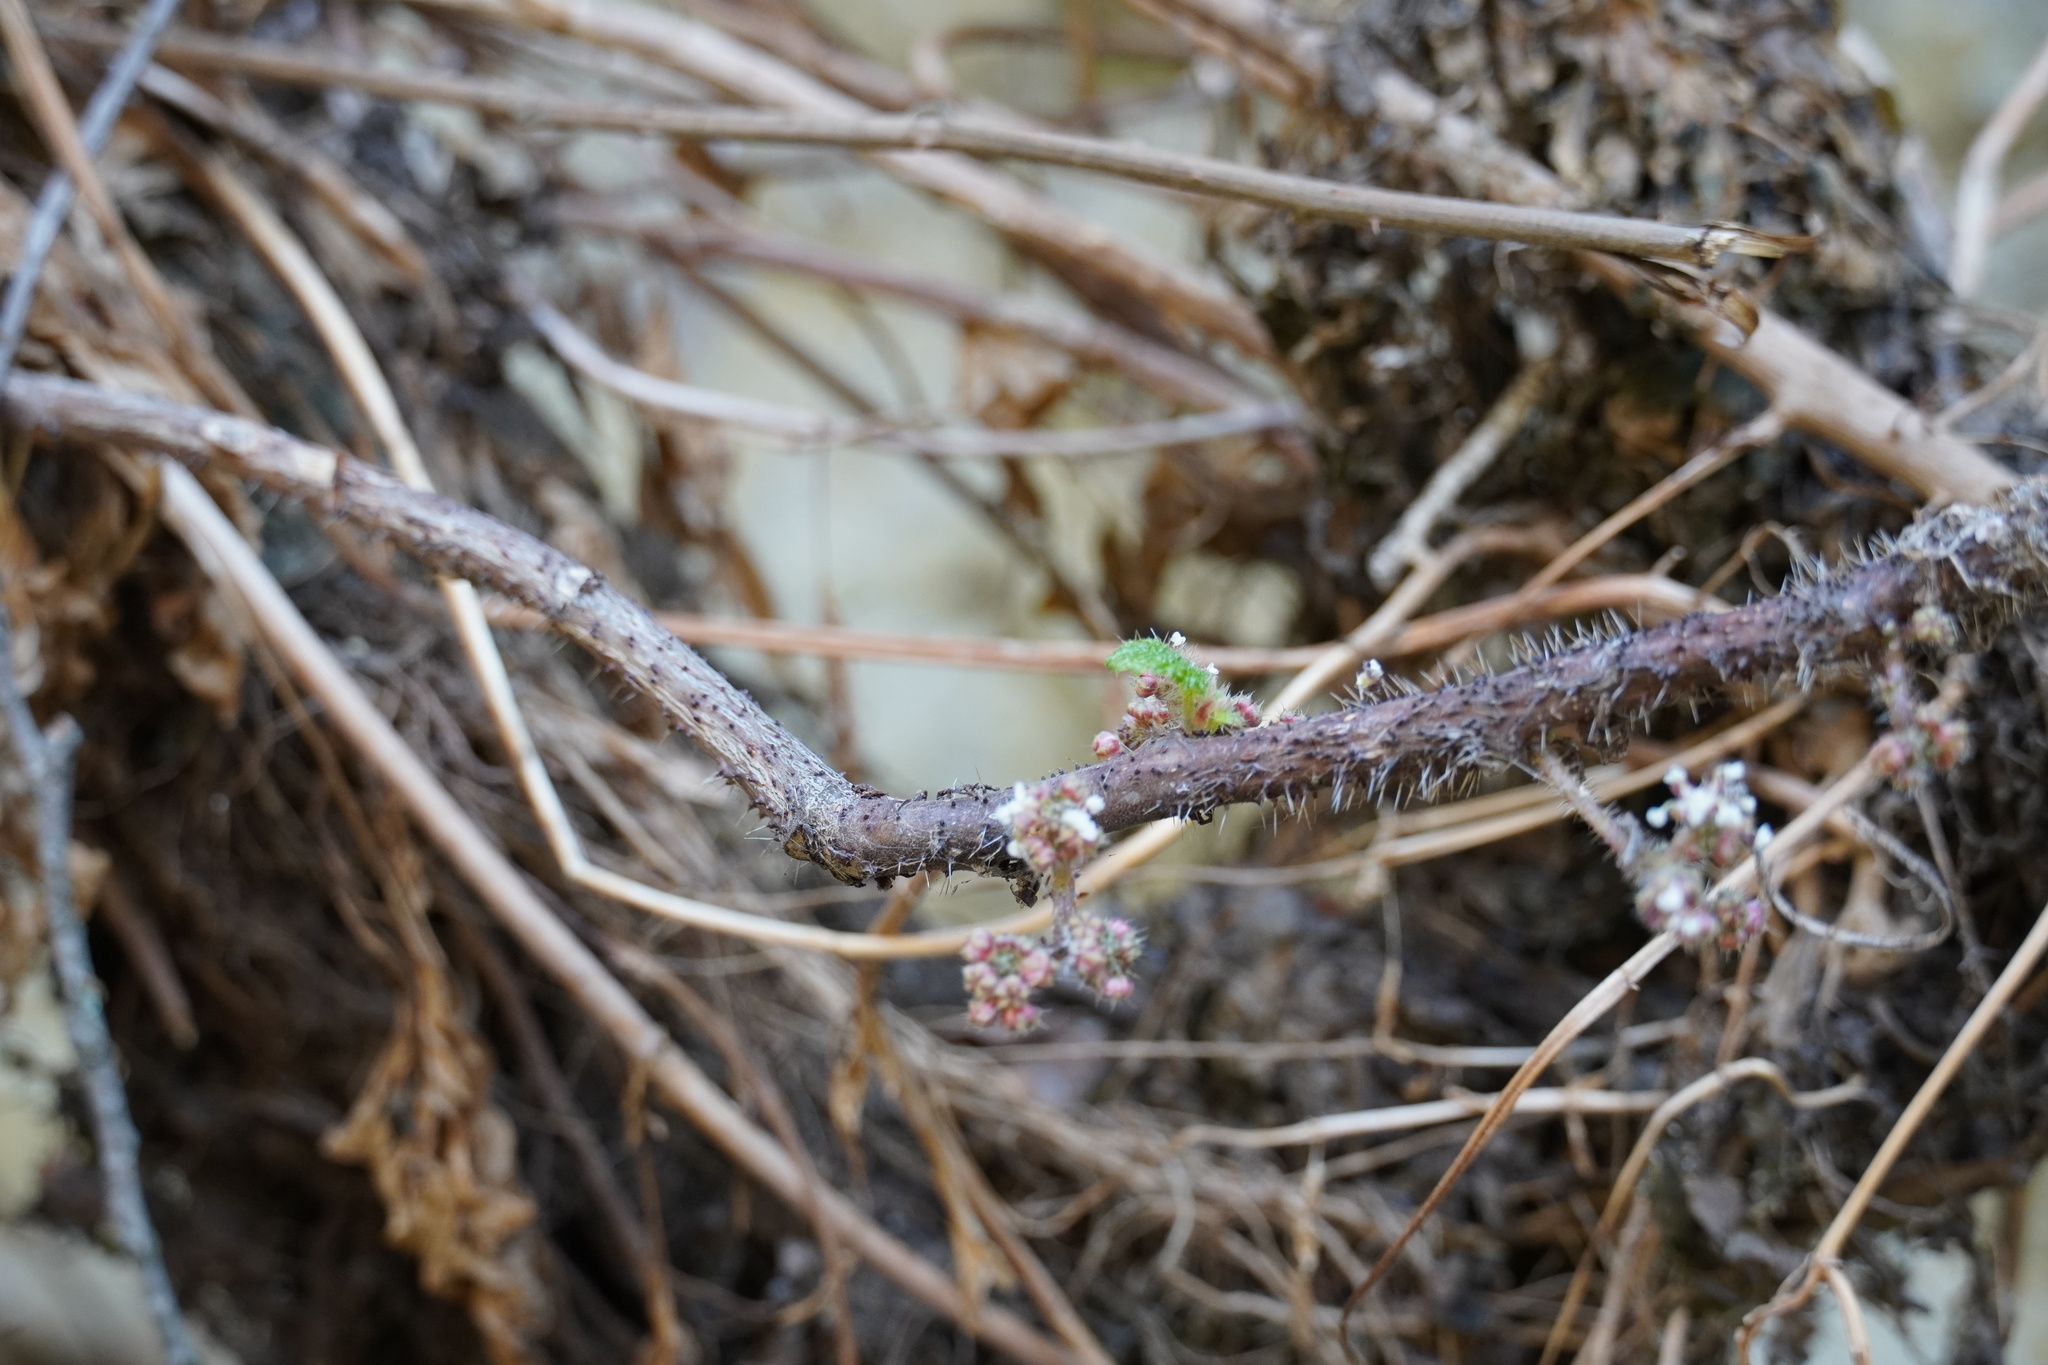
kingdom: Plantae
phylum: Tracheophyta
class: Magnoliopsida
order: Rosales
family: Urticaceae
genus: Obetia
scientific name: Obetia tenax
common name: Rock tree nettle
